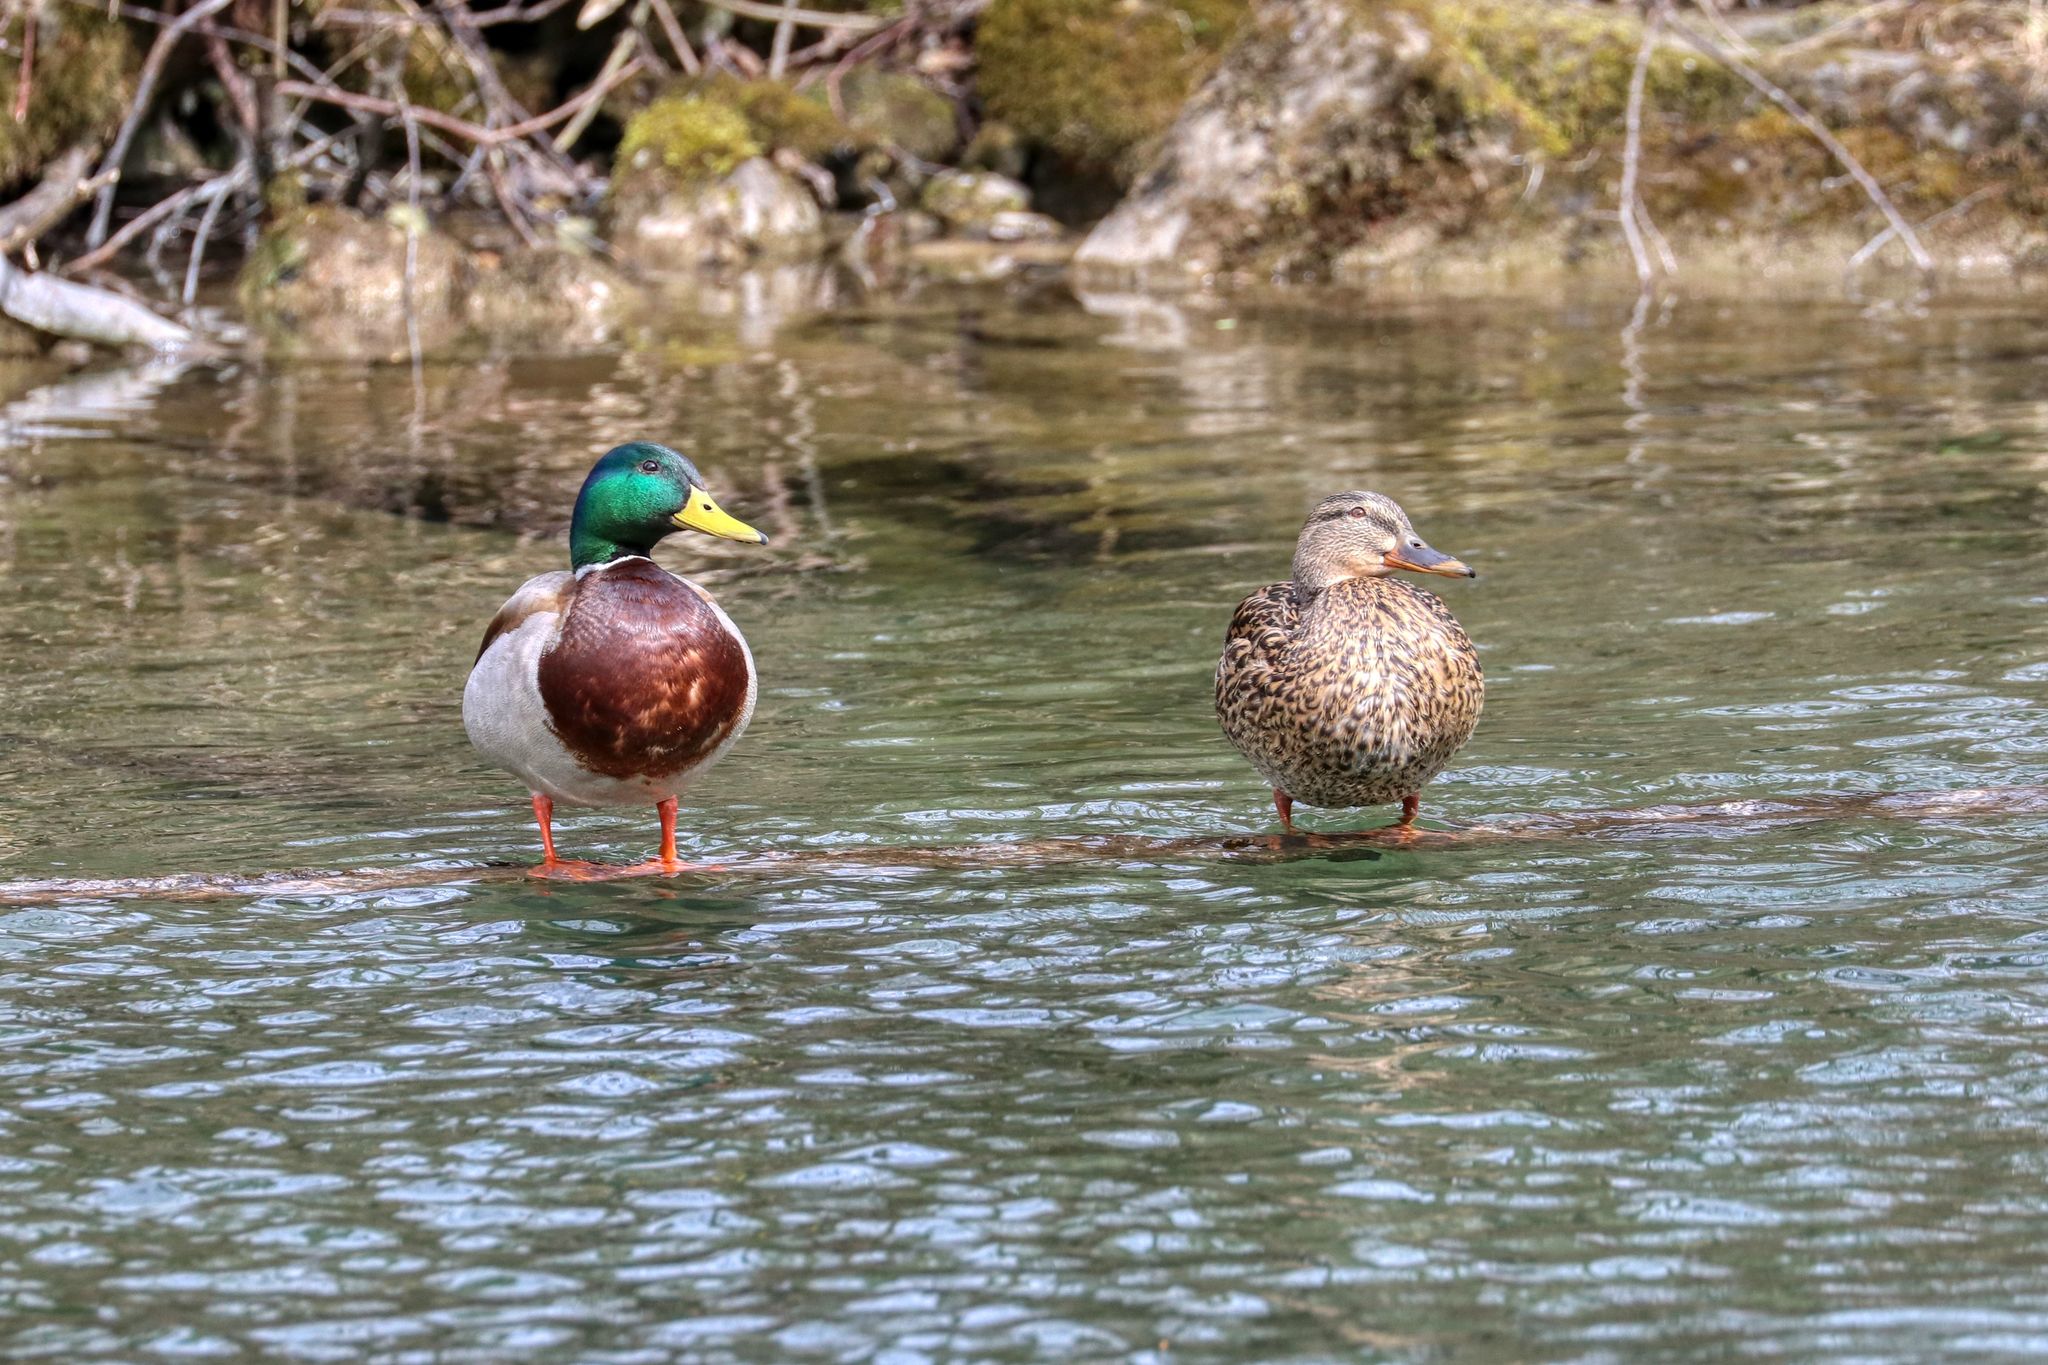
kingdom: Animalia
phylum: Chordata
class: Aves
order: Anseriformes
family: Anatidae
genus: Anas
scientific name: Anas platyrhynchos
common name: Mallard
